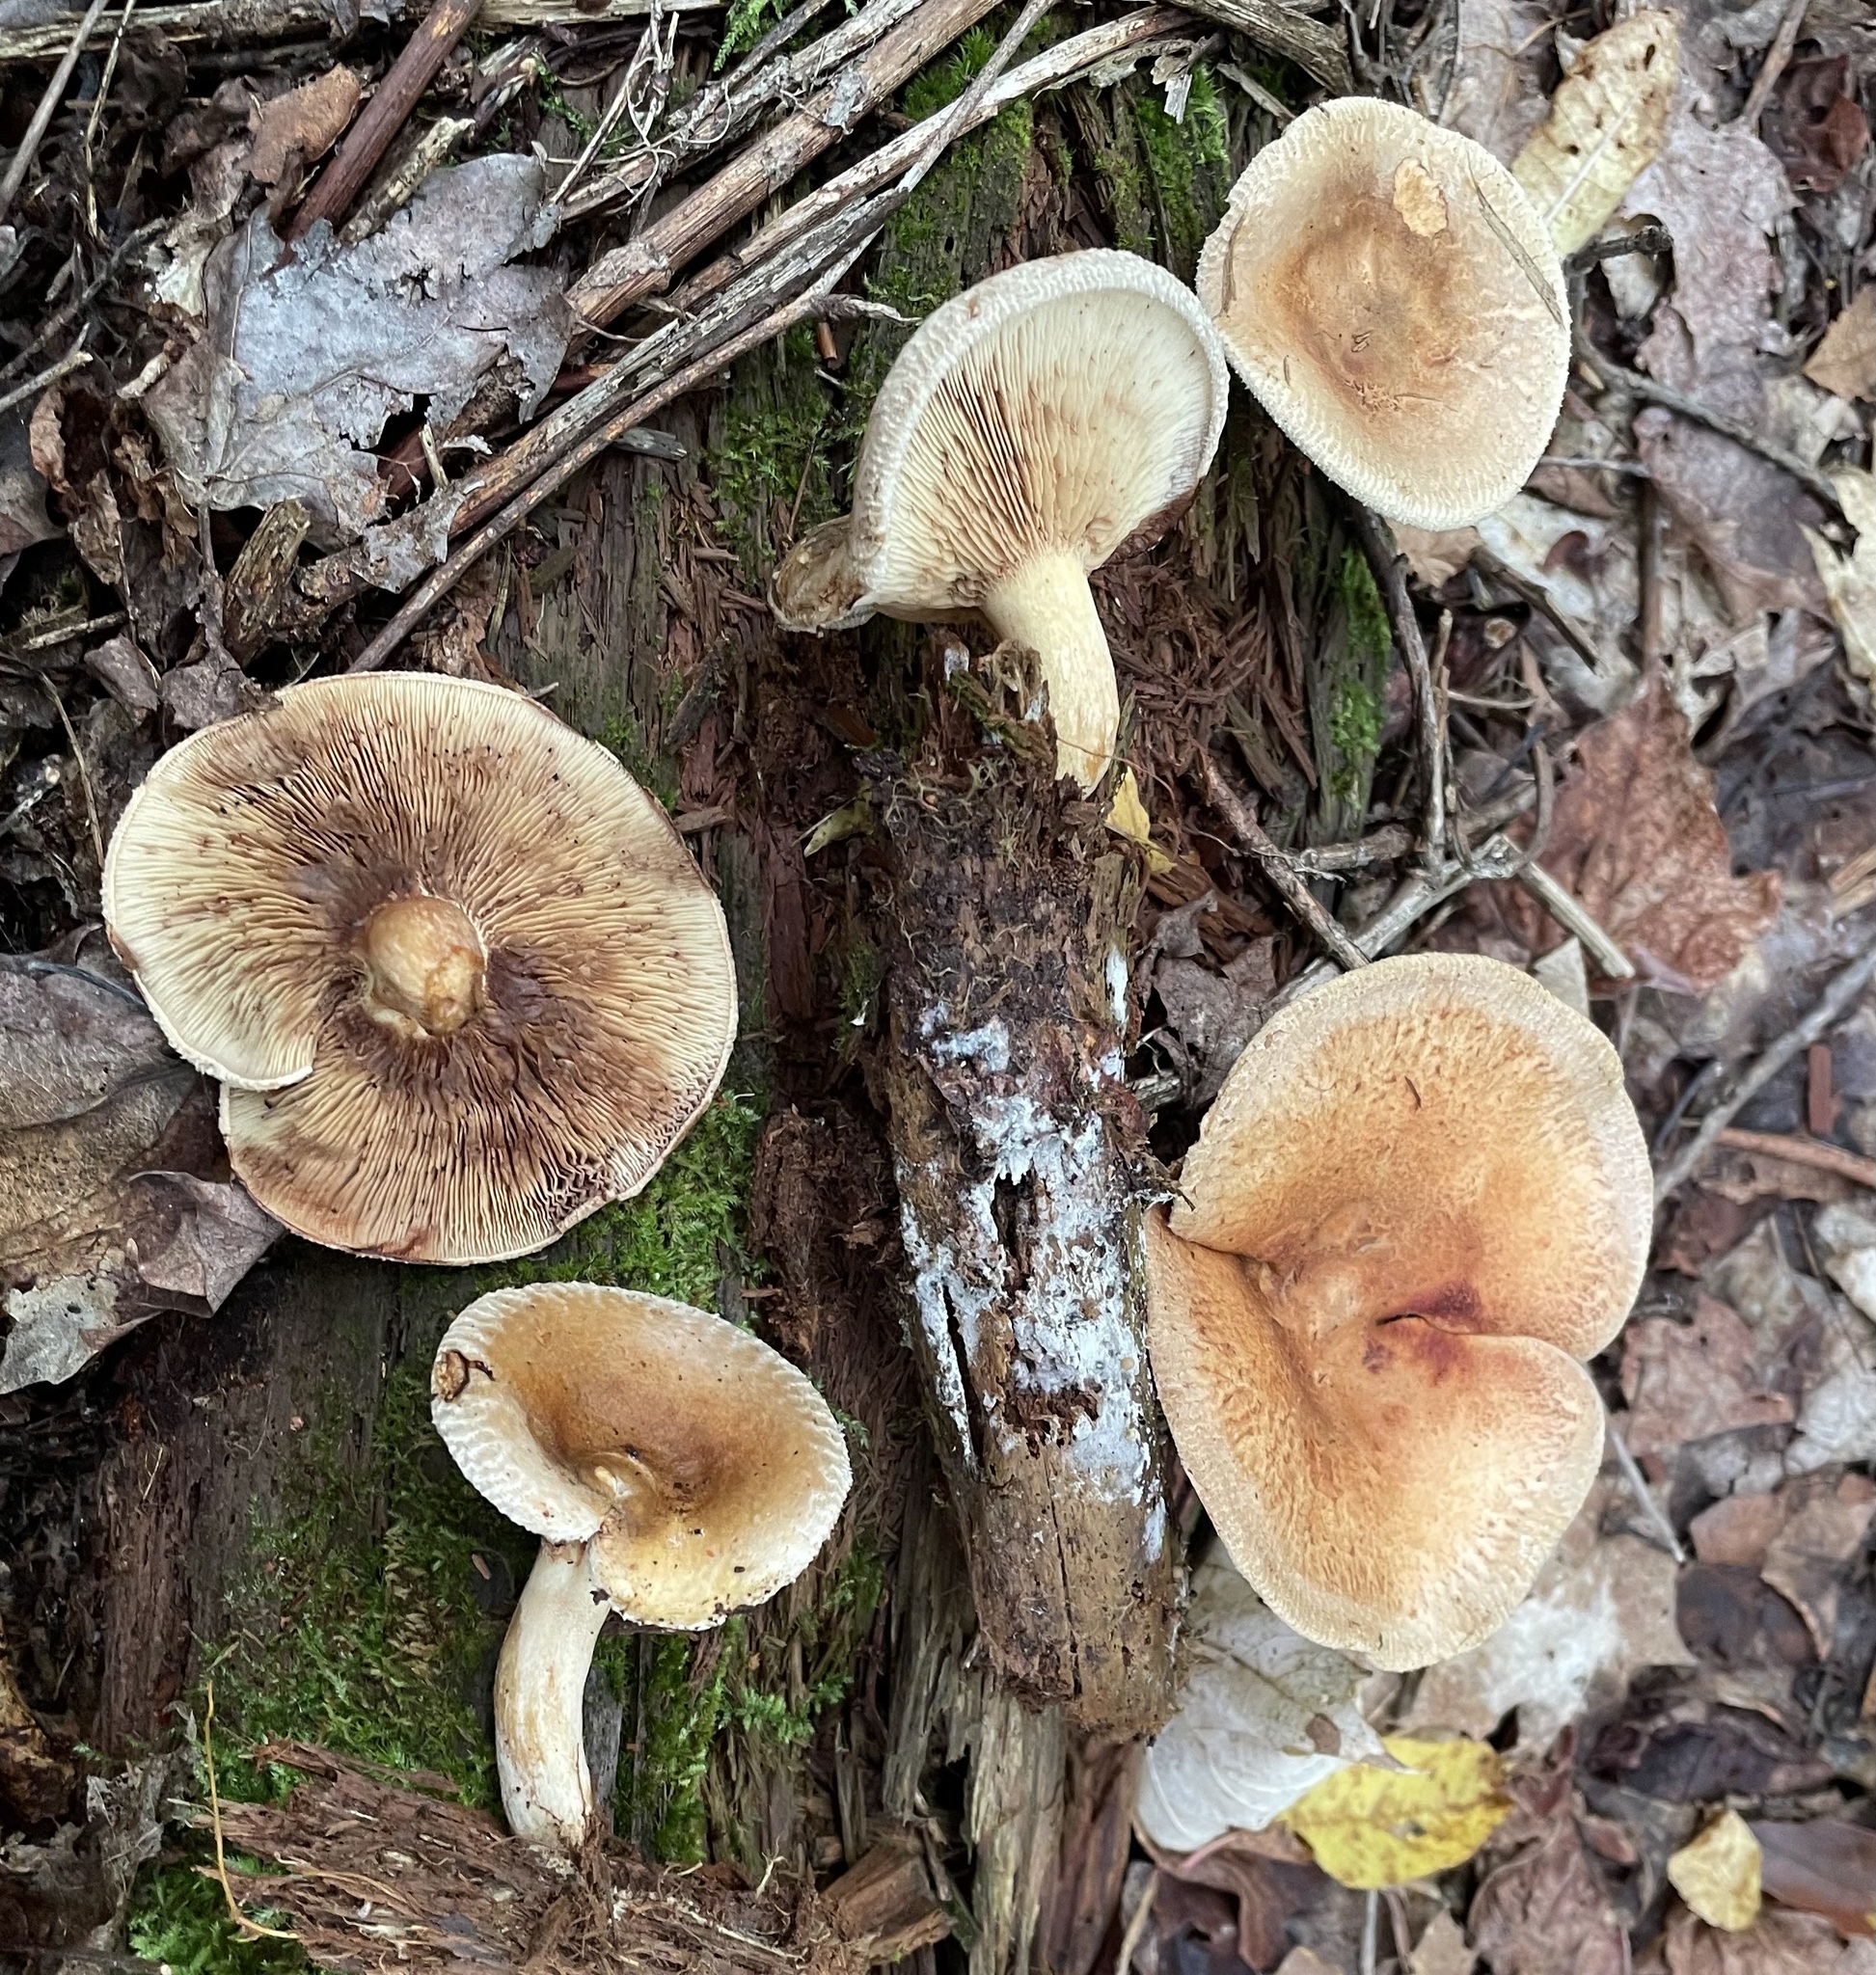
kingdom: Fungi
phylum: Basidiomycota
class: Agaricomycetes
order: Boletales
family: Paxillaceae
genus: Paxillus
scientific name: Paxillus involutus
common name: Brown roll rim
